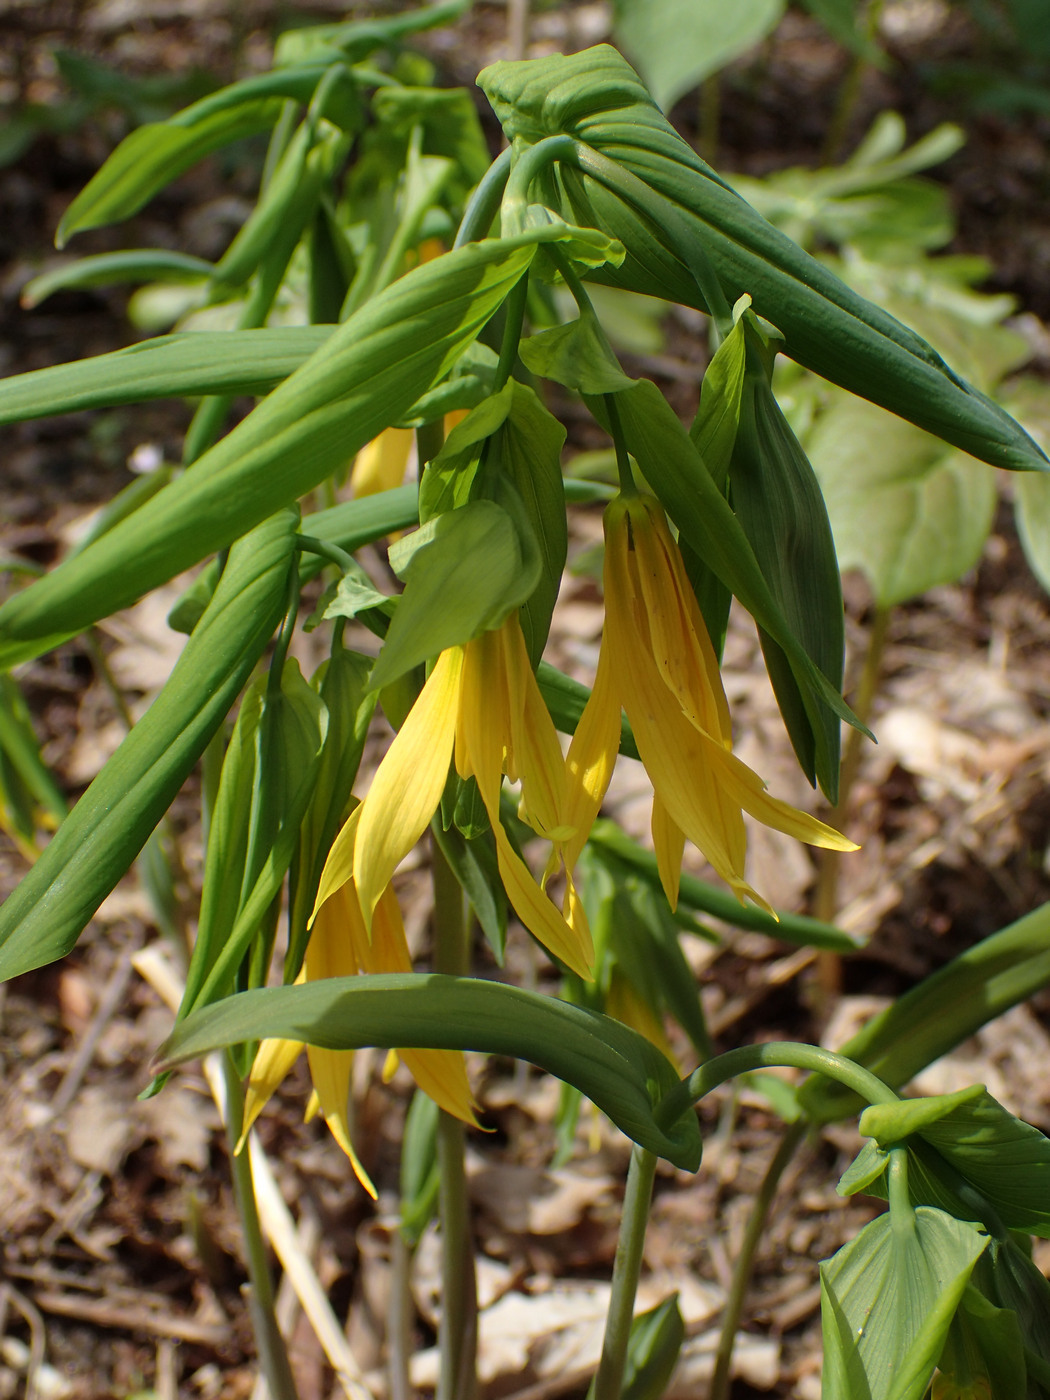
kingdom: Plantae
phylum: Tracheophyta
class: Liliopsida
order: Liliales
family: Colchicaceae
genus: Uvularia
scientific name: Uvularia grandiflora
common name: Bellwort
